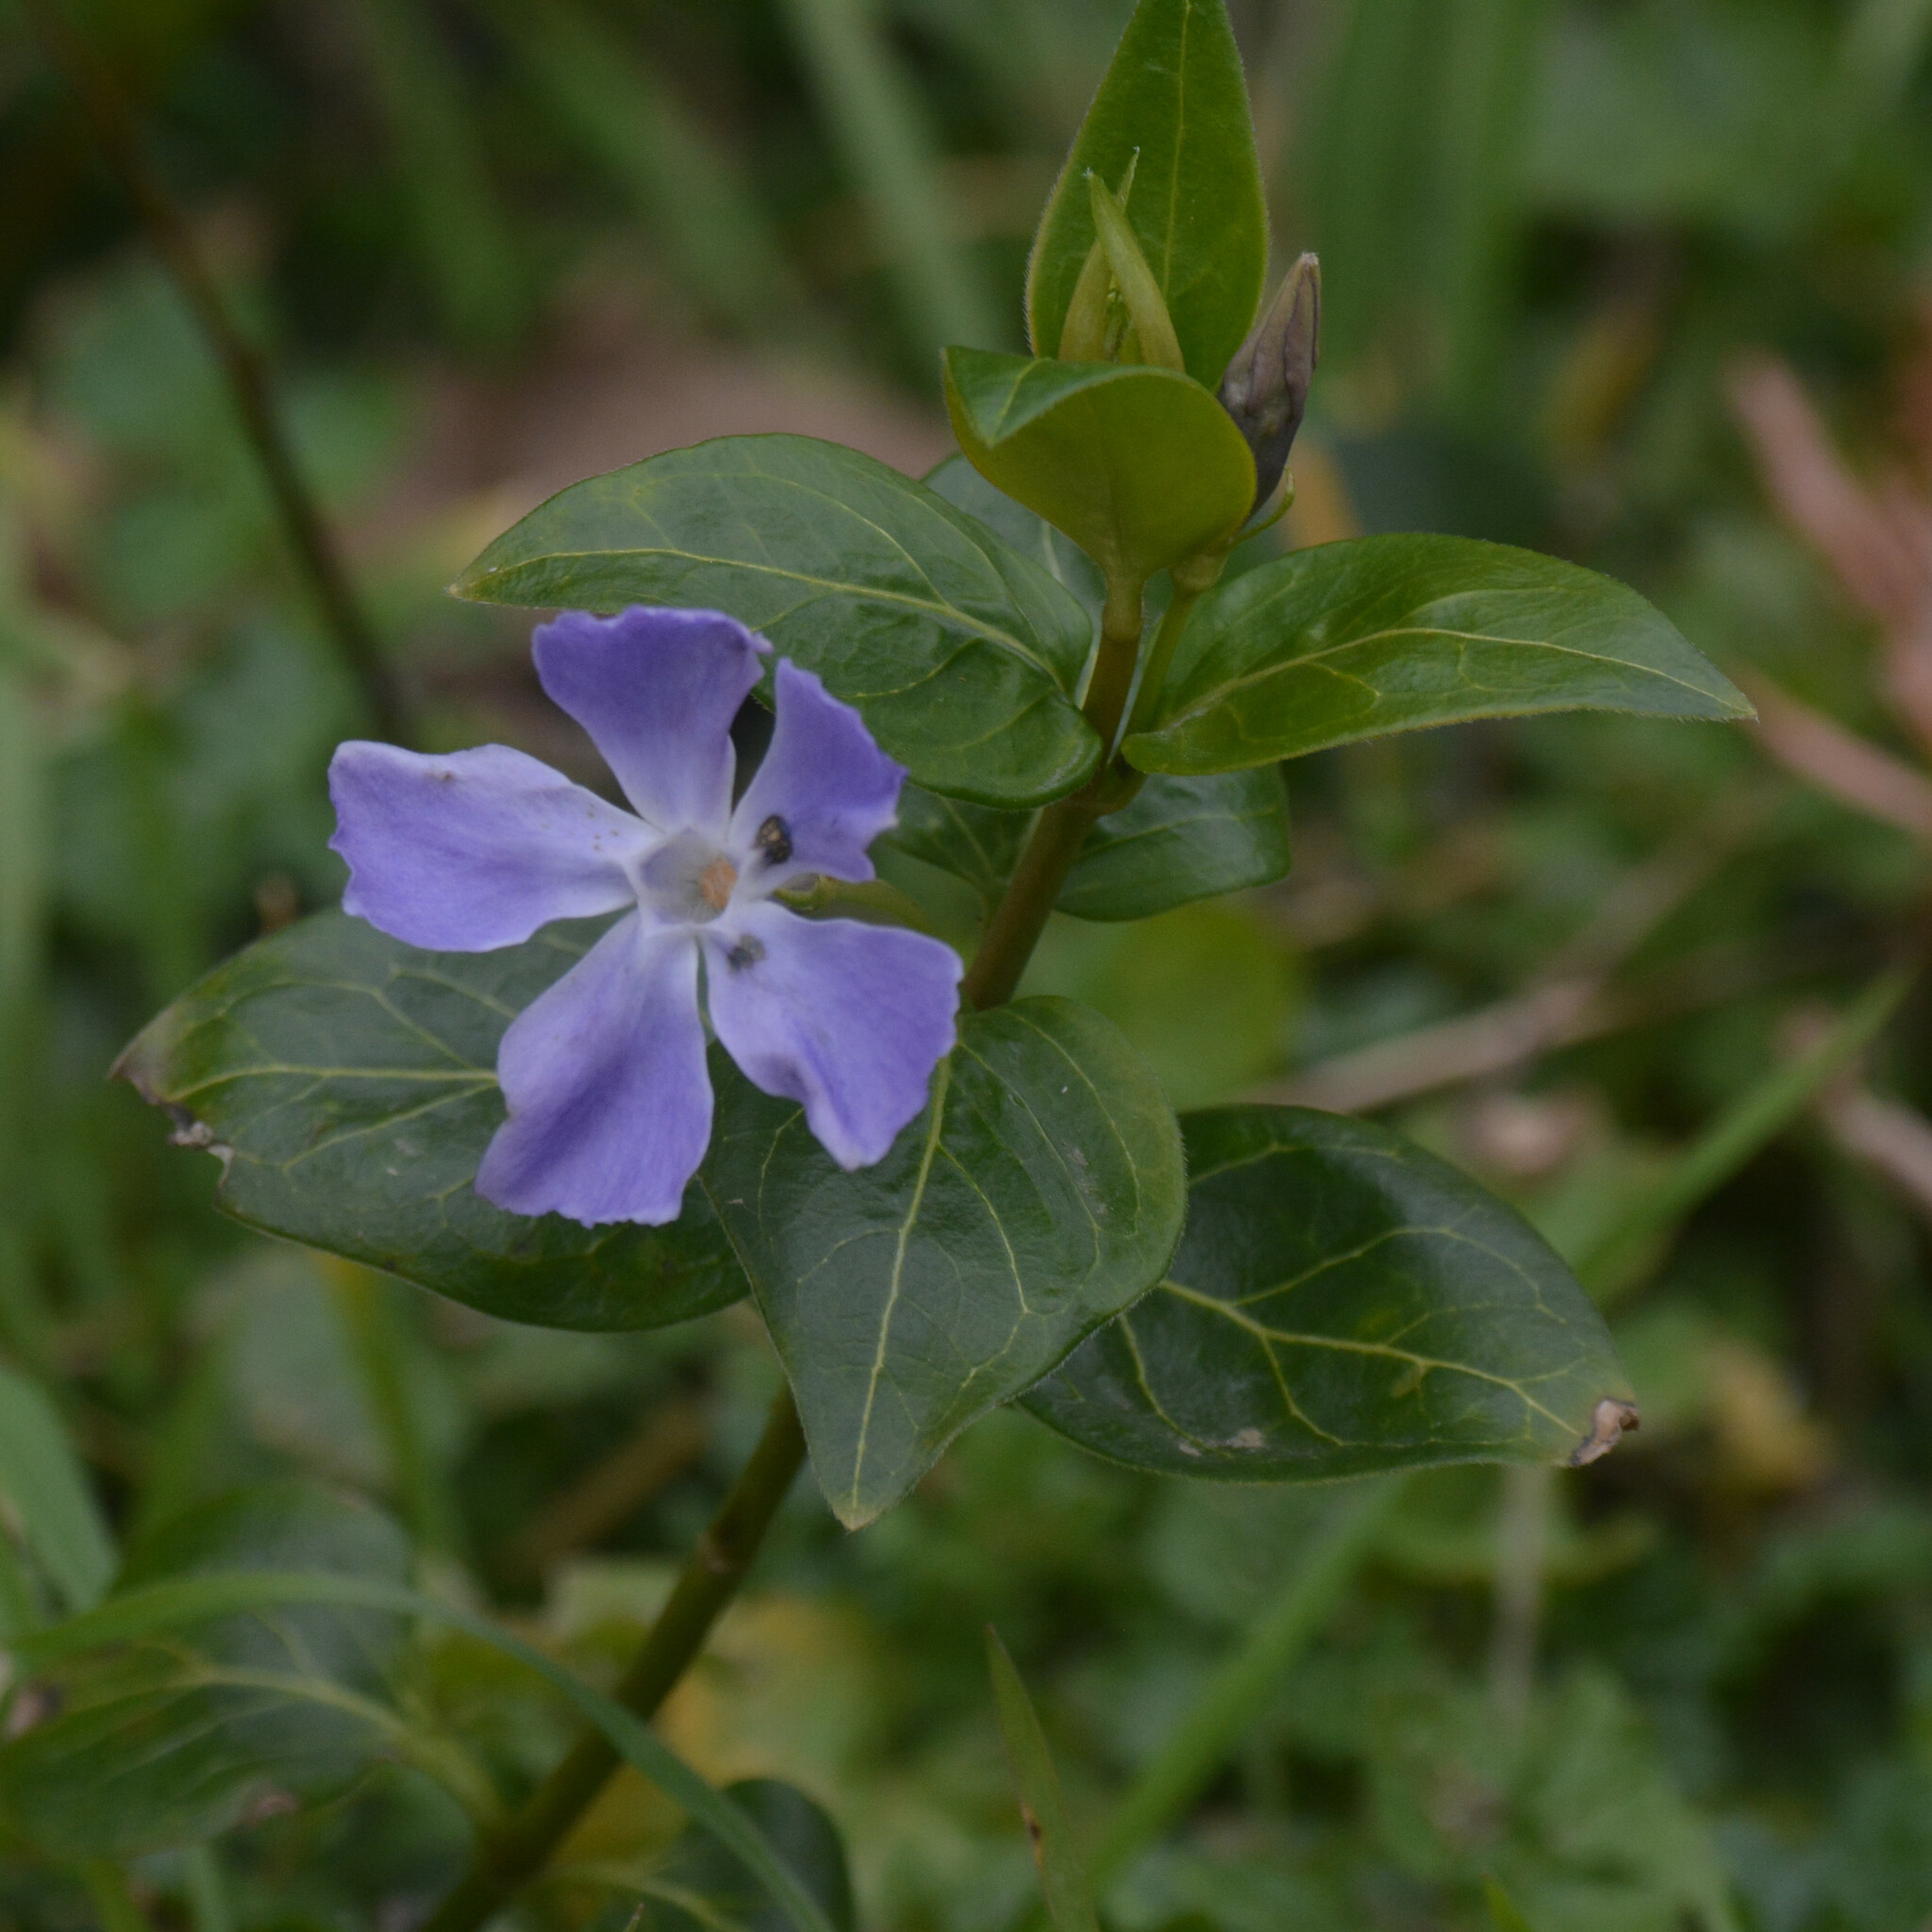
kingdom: Plantae
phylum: Tracheophyta
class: Magnoliopsida
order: Gentianales
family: Apocynaceae
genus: Vinca
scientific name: Vinca major
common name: Greater periwinkle
